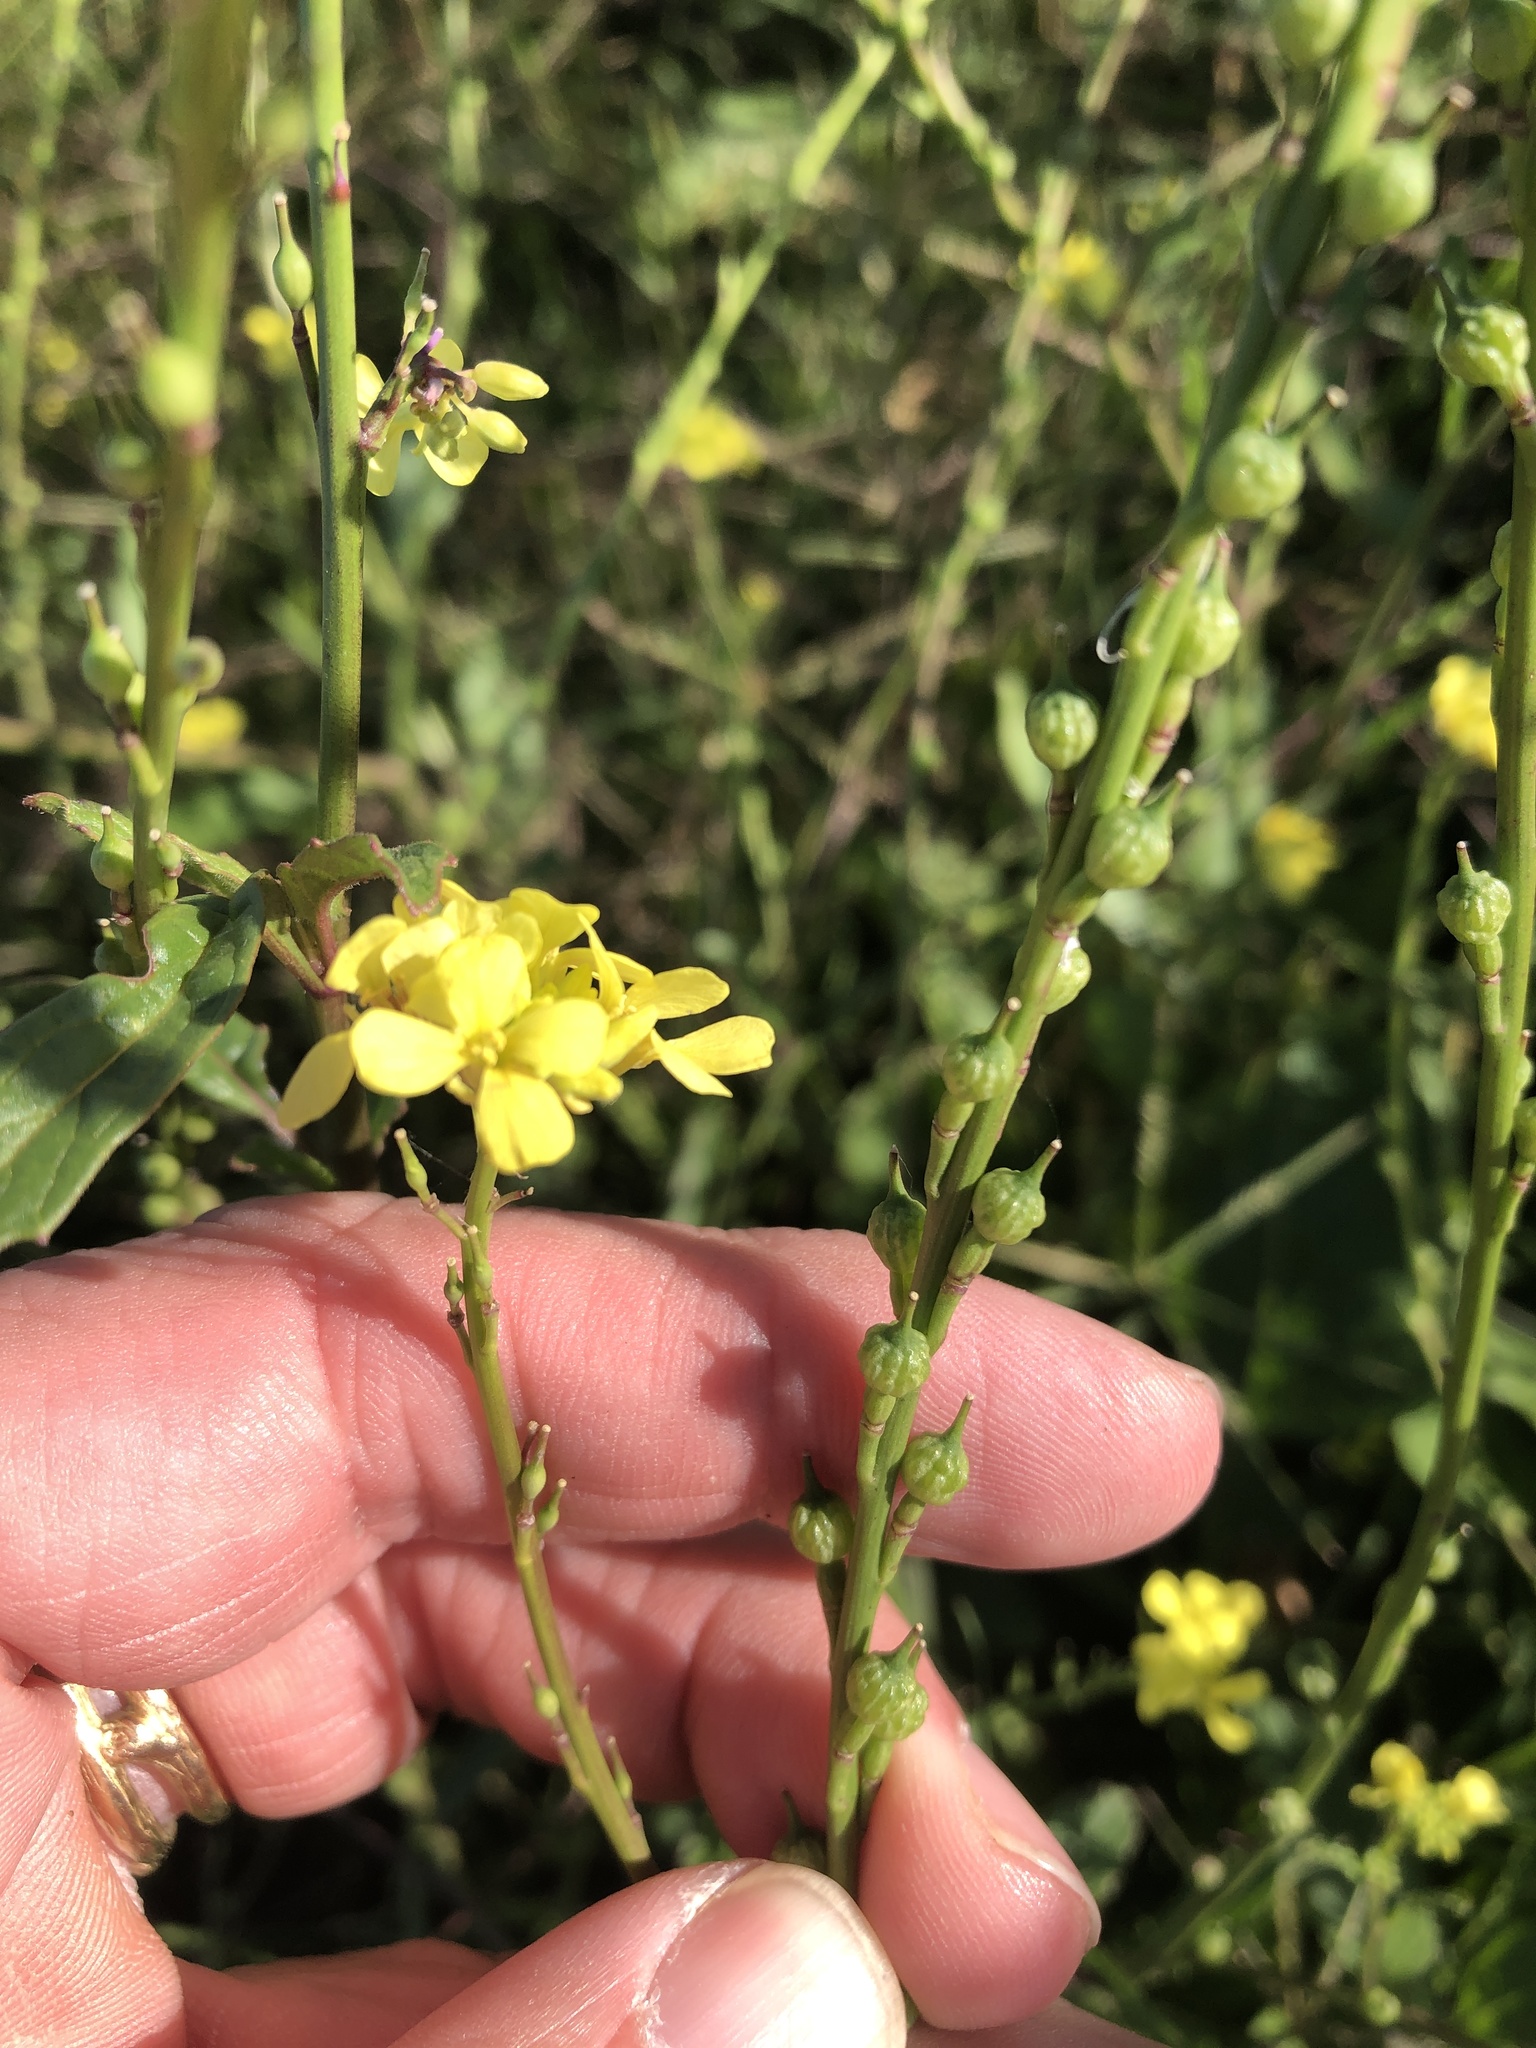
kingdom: Plantae
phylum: Tracheophyta
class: Magnoliopsida
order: Brassicales
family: Brassicaceae
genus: Rapistrum
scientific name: Rapistrum rugosum
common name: Annual bastardcabbage
